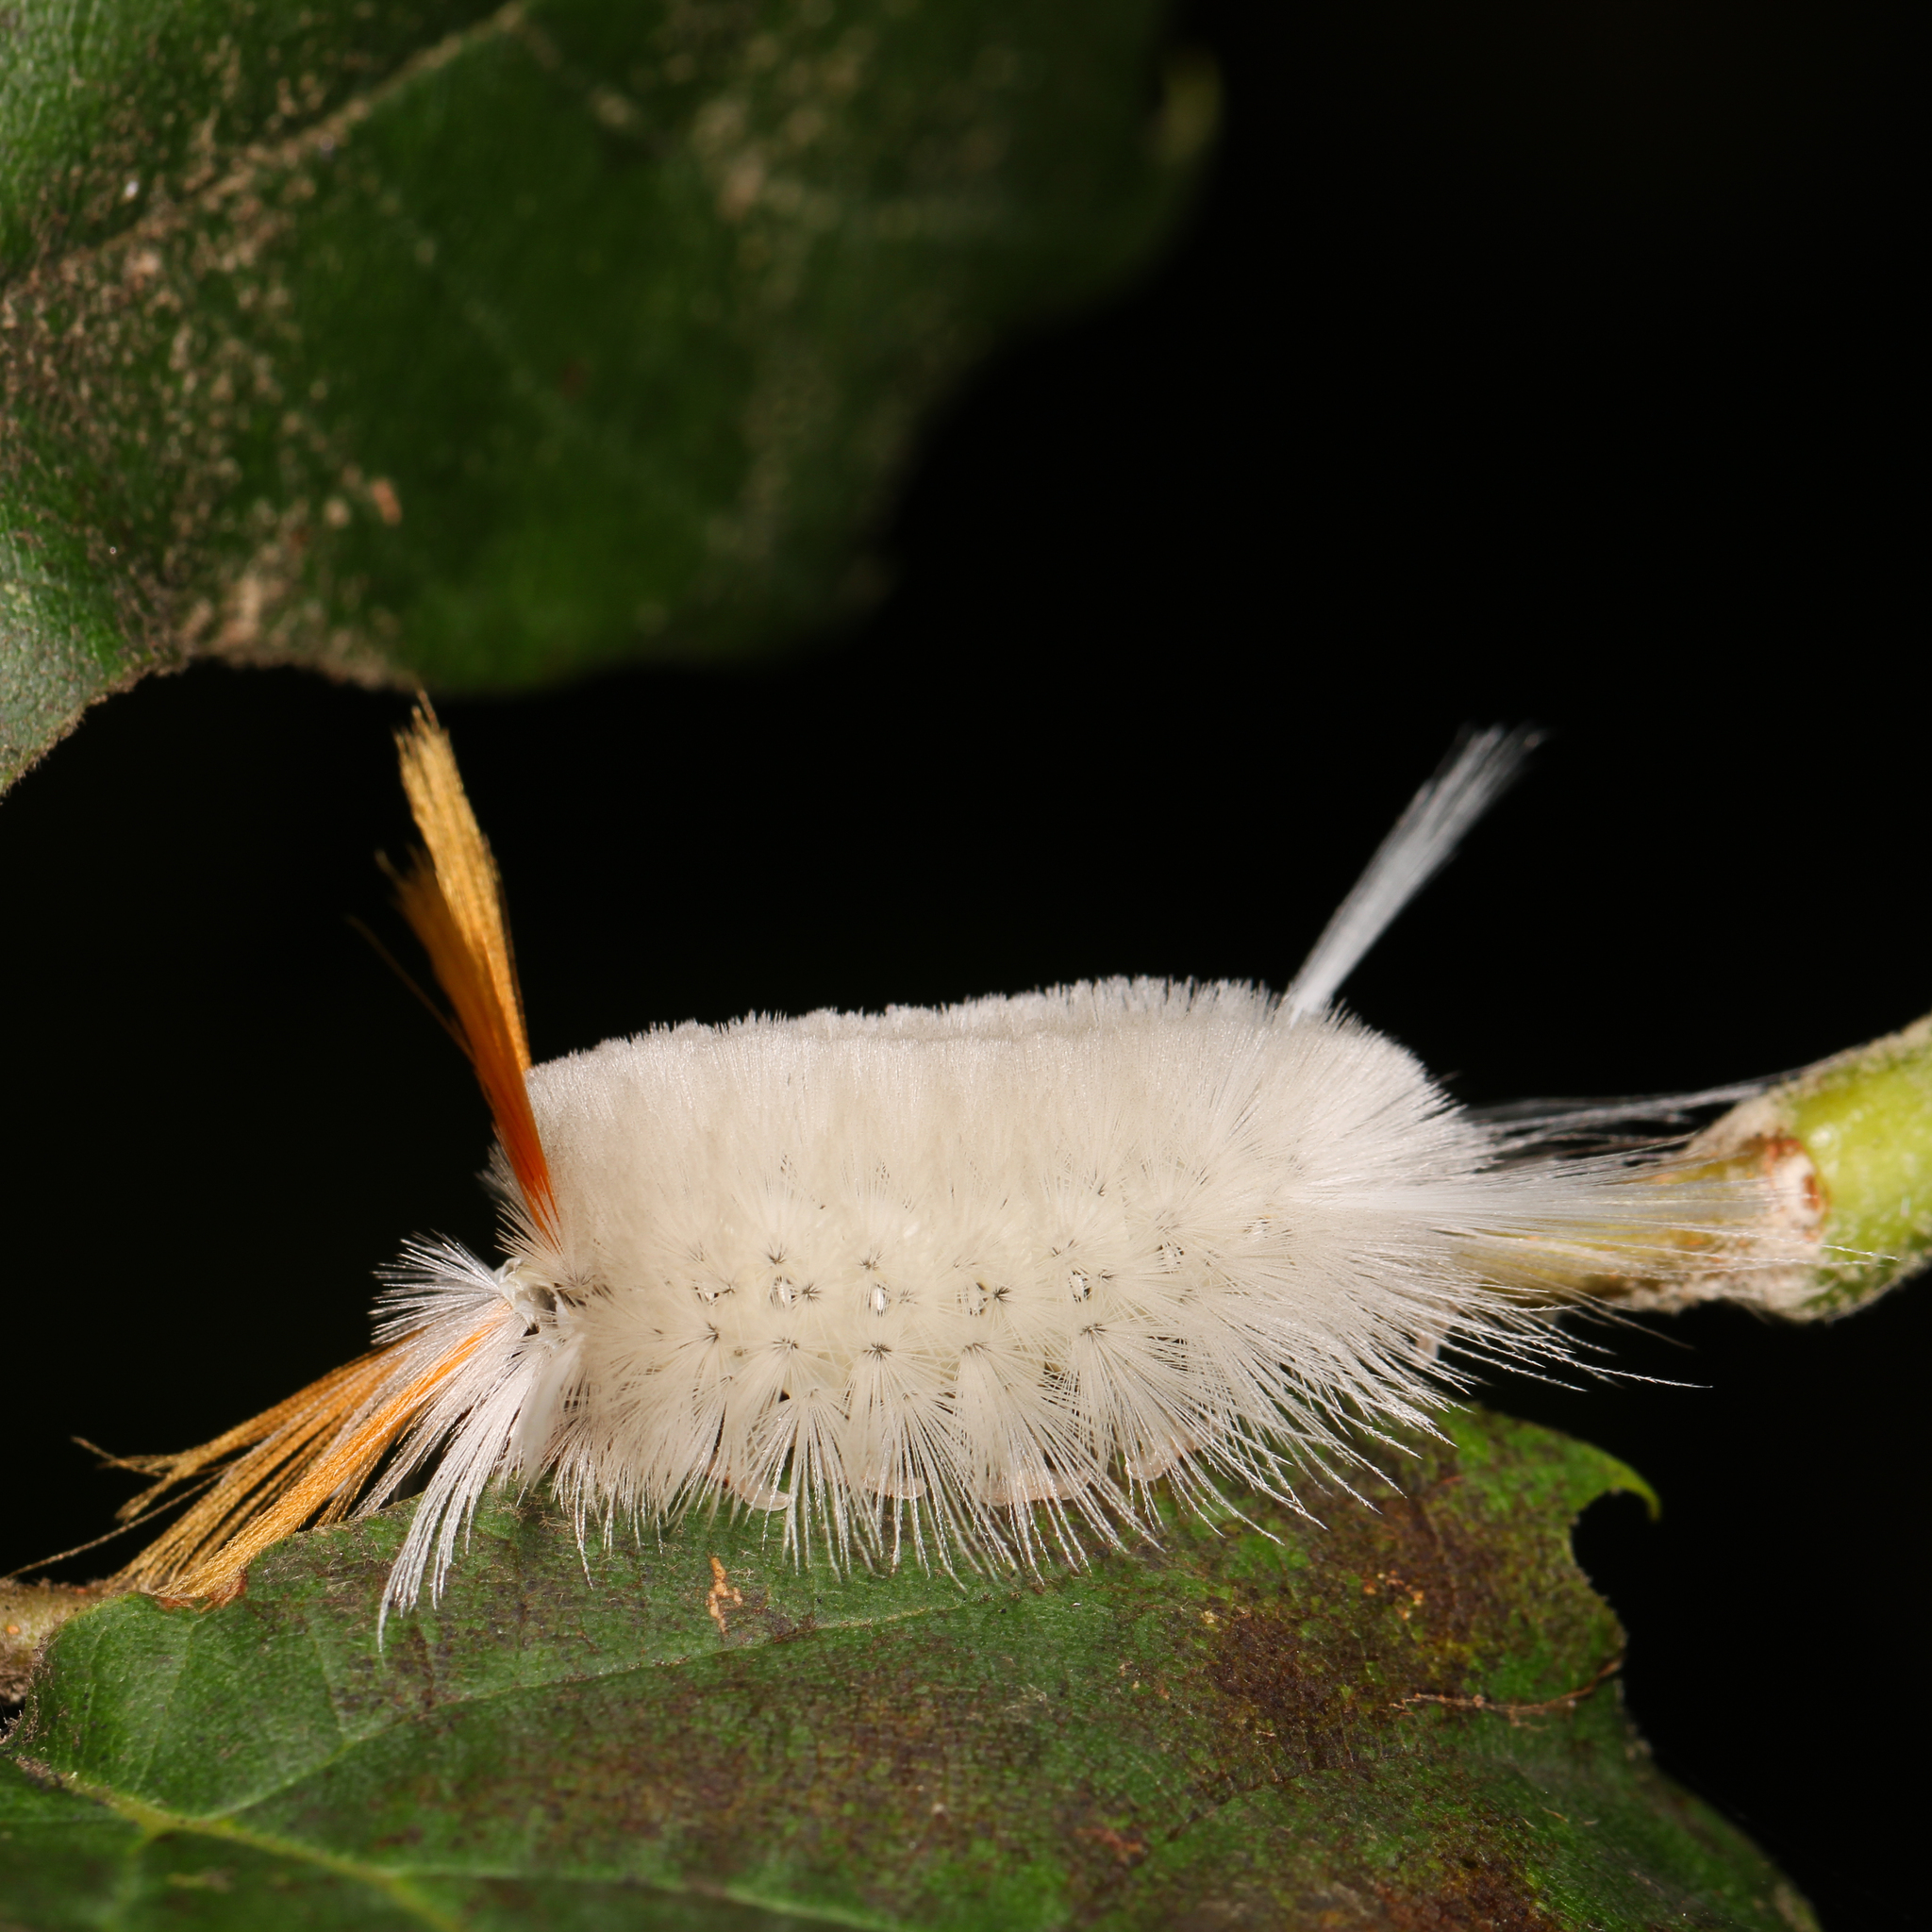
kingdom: Animalia
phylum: Arthropoda
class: Insecta
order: Lepidoptera
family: Erebidae
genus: Halysidota
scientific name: Halysidota harrisii
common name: Sycamore tussock moth
